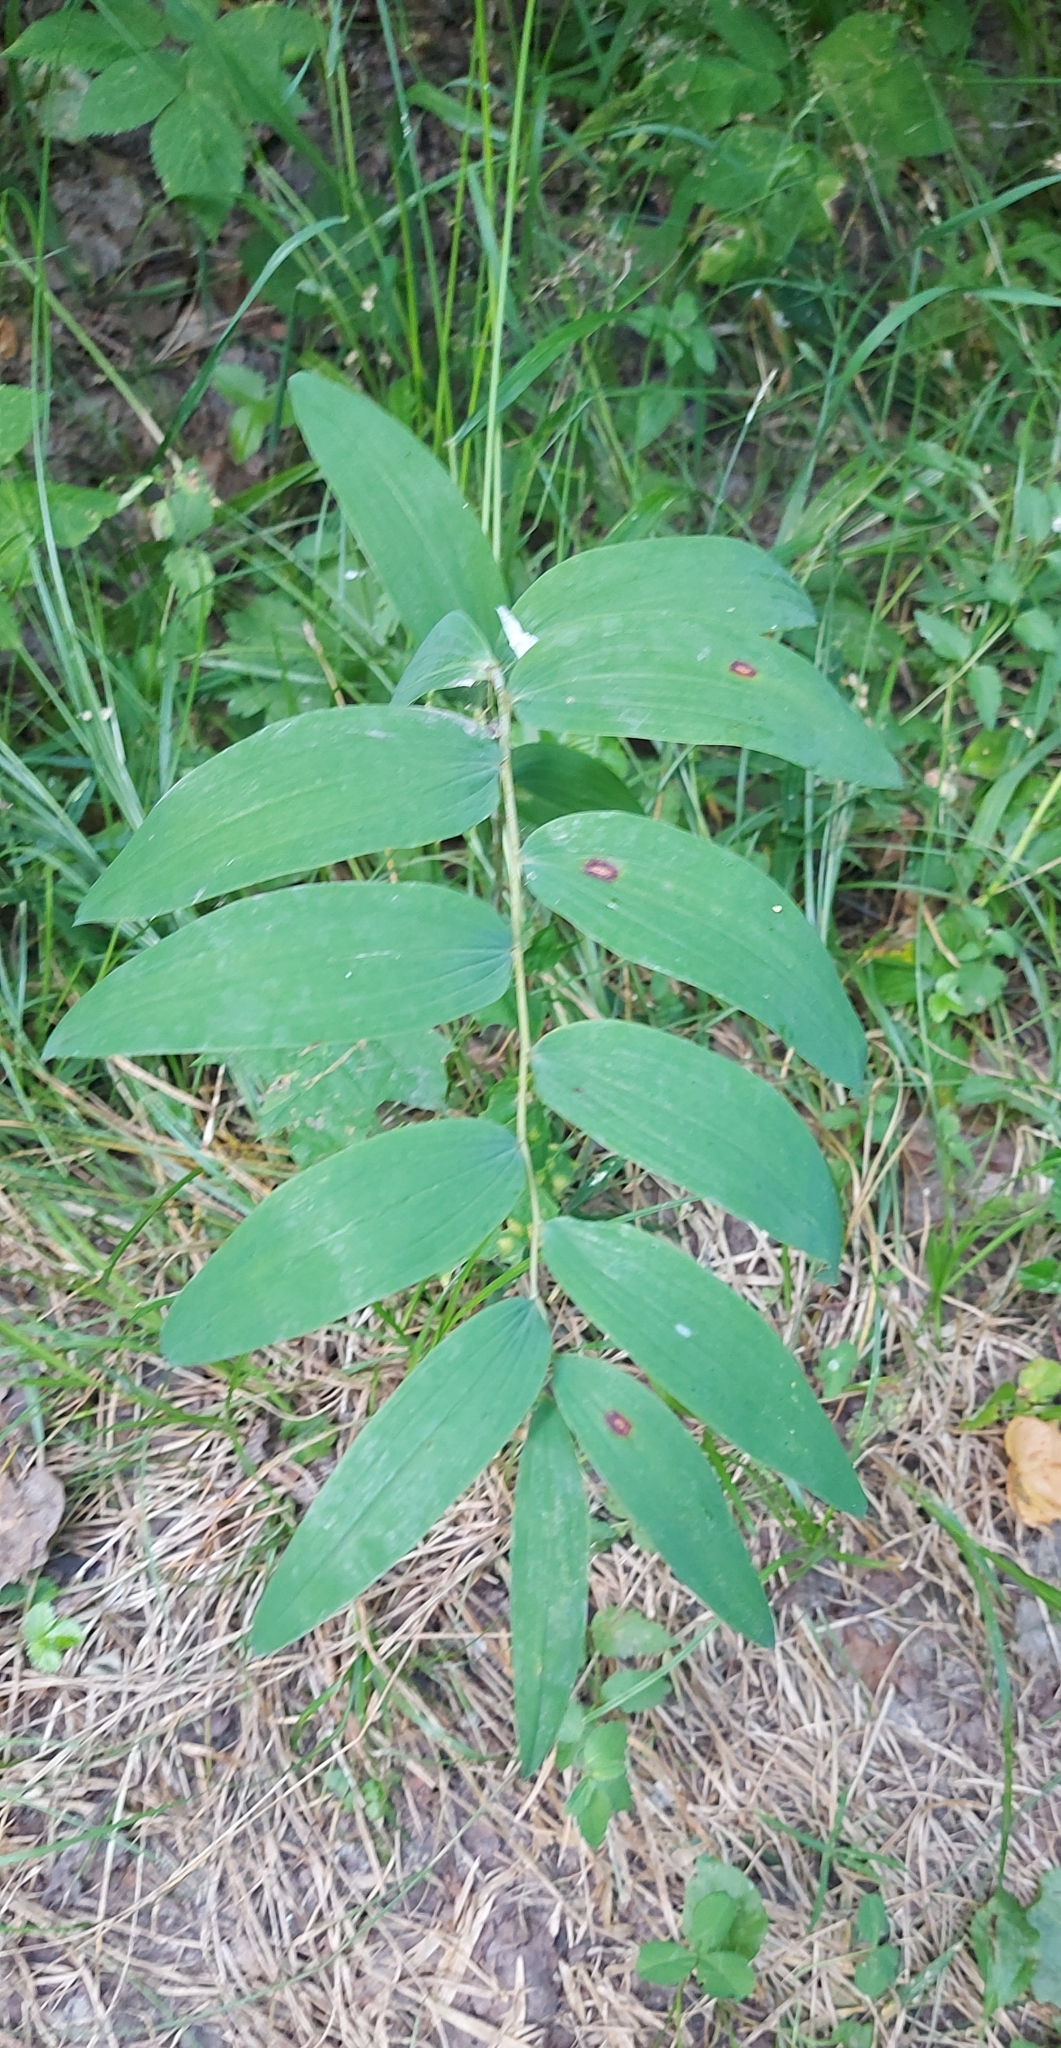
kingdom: Plantae
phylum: Tracheophyta
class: Liliopsida
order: Asparagales
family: Asparagaceae
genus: Polygonatum
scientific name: Polygonatum multiflorum
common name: Solomon's-seal
